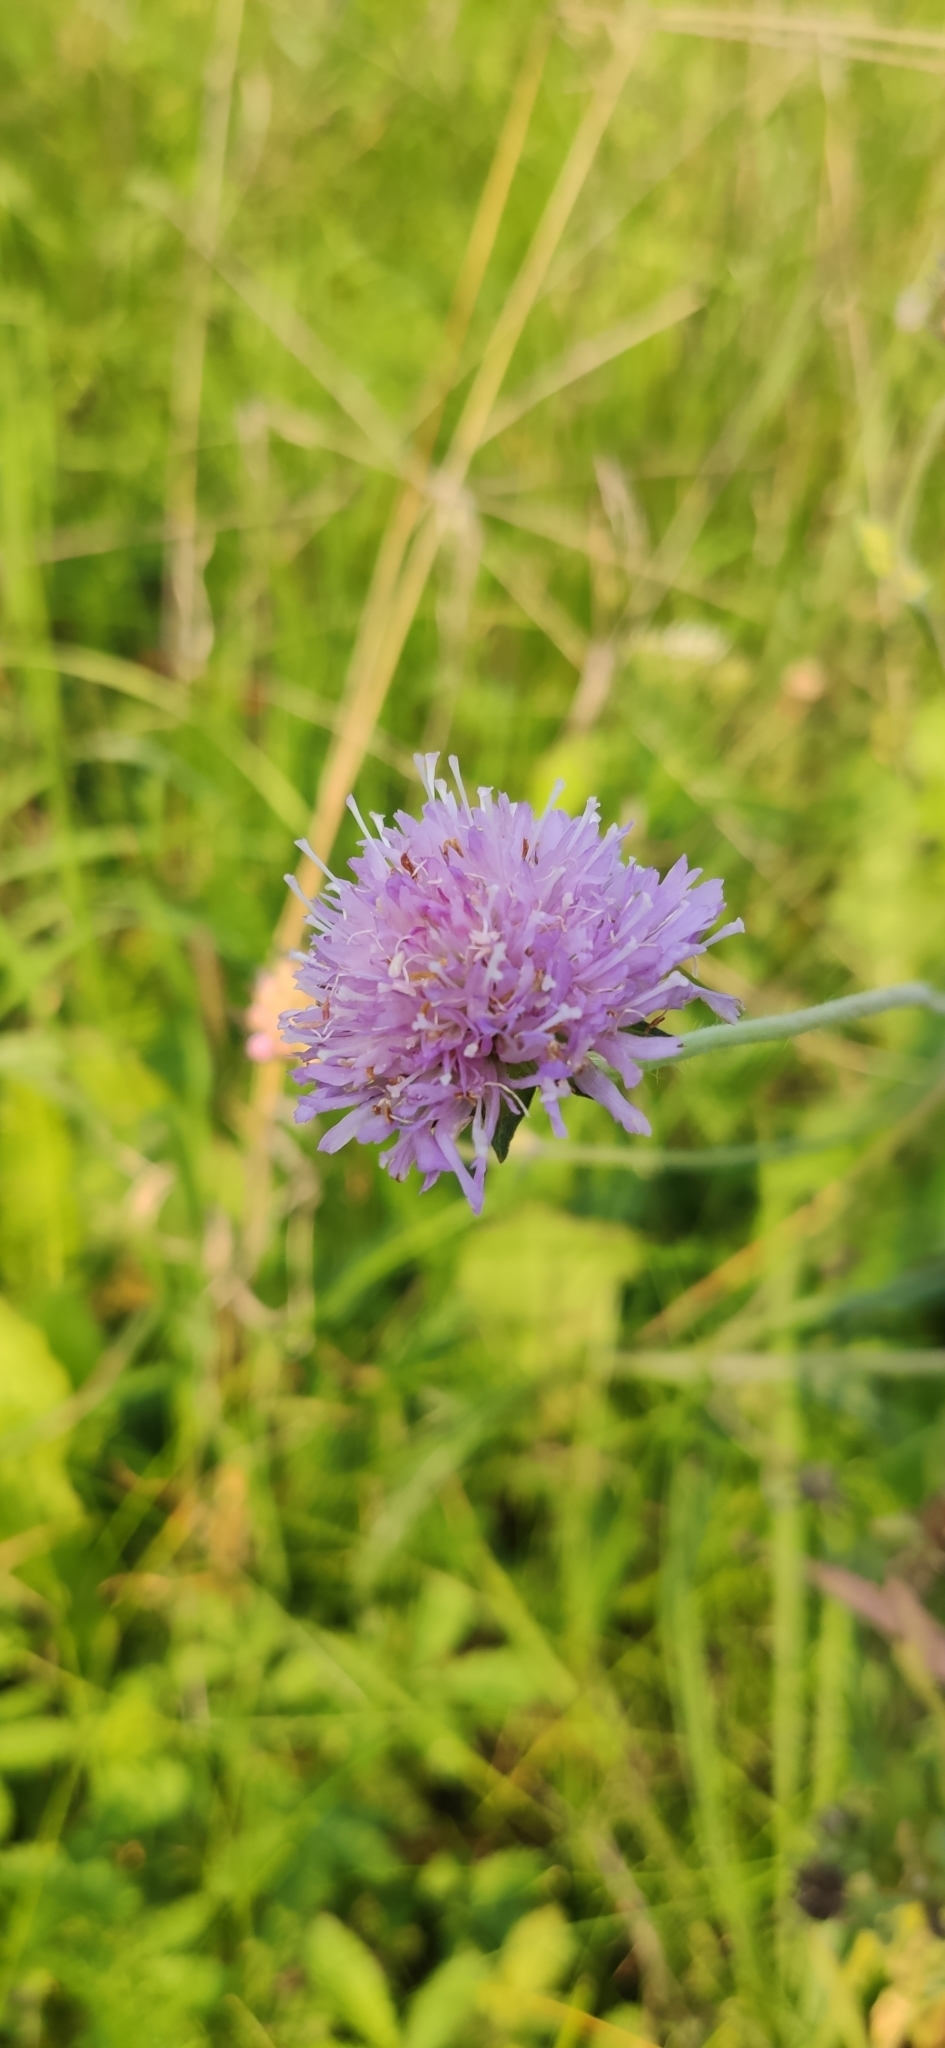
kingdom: Plantae
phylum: Tracheophyta
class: Magnoliopsida
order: Dipsacales
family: Caprifoliaceae
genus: Knautia
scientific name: Knautia arvensis
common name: Field scabiosa
